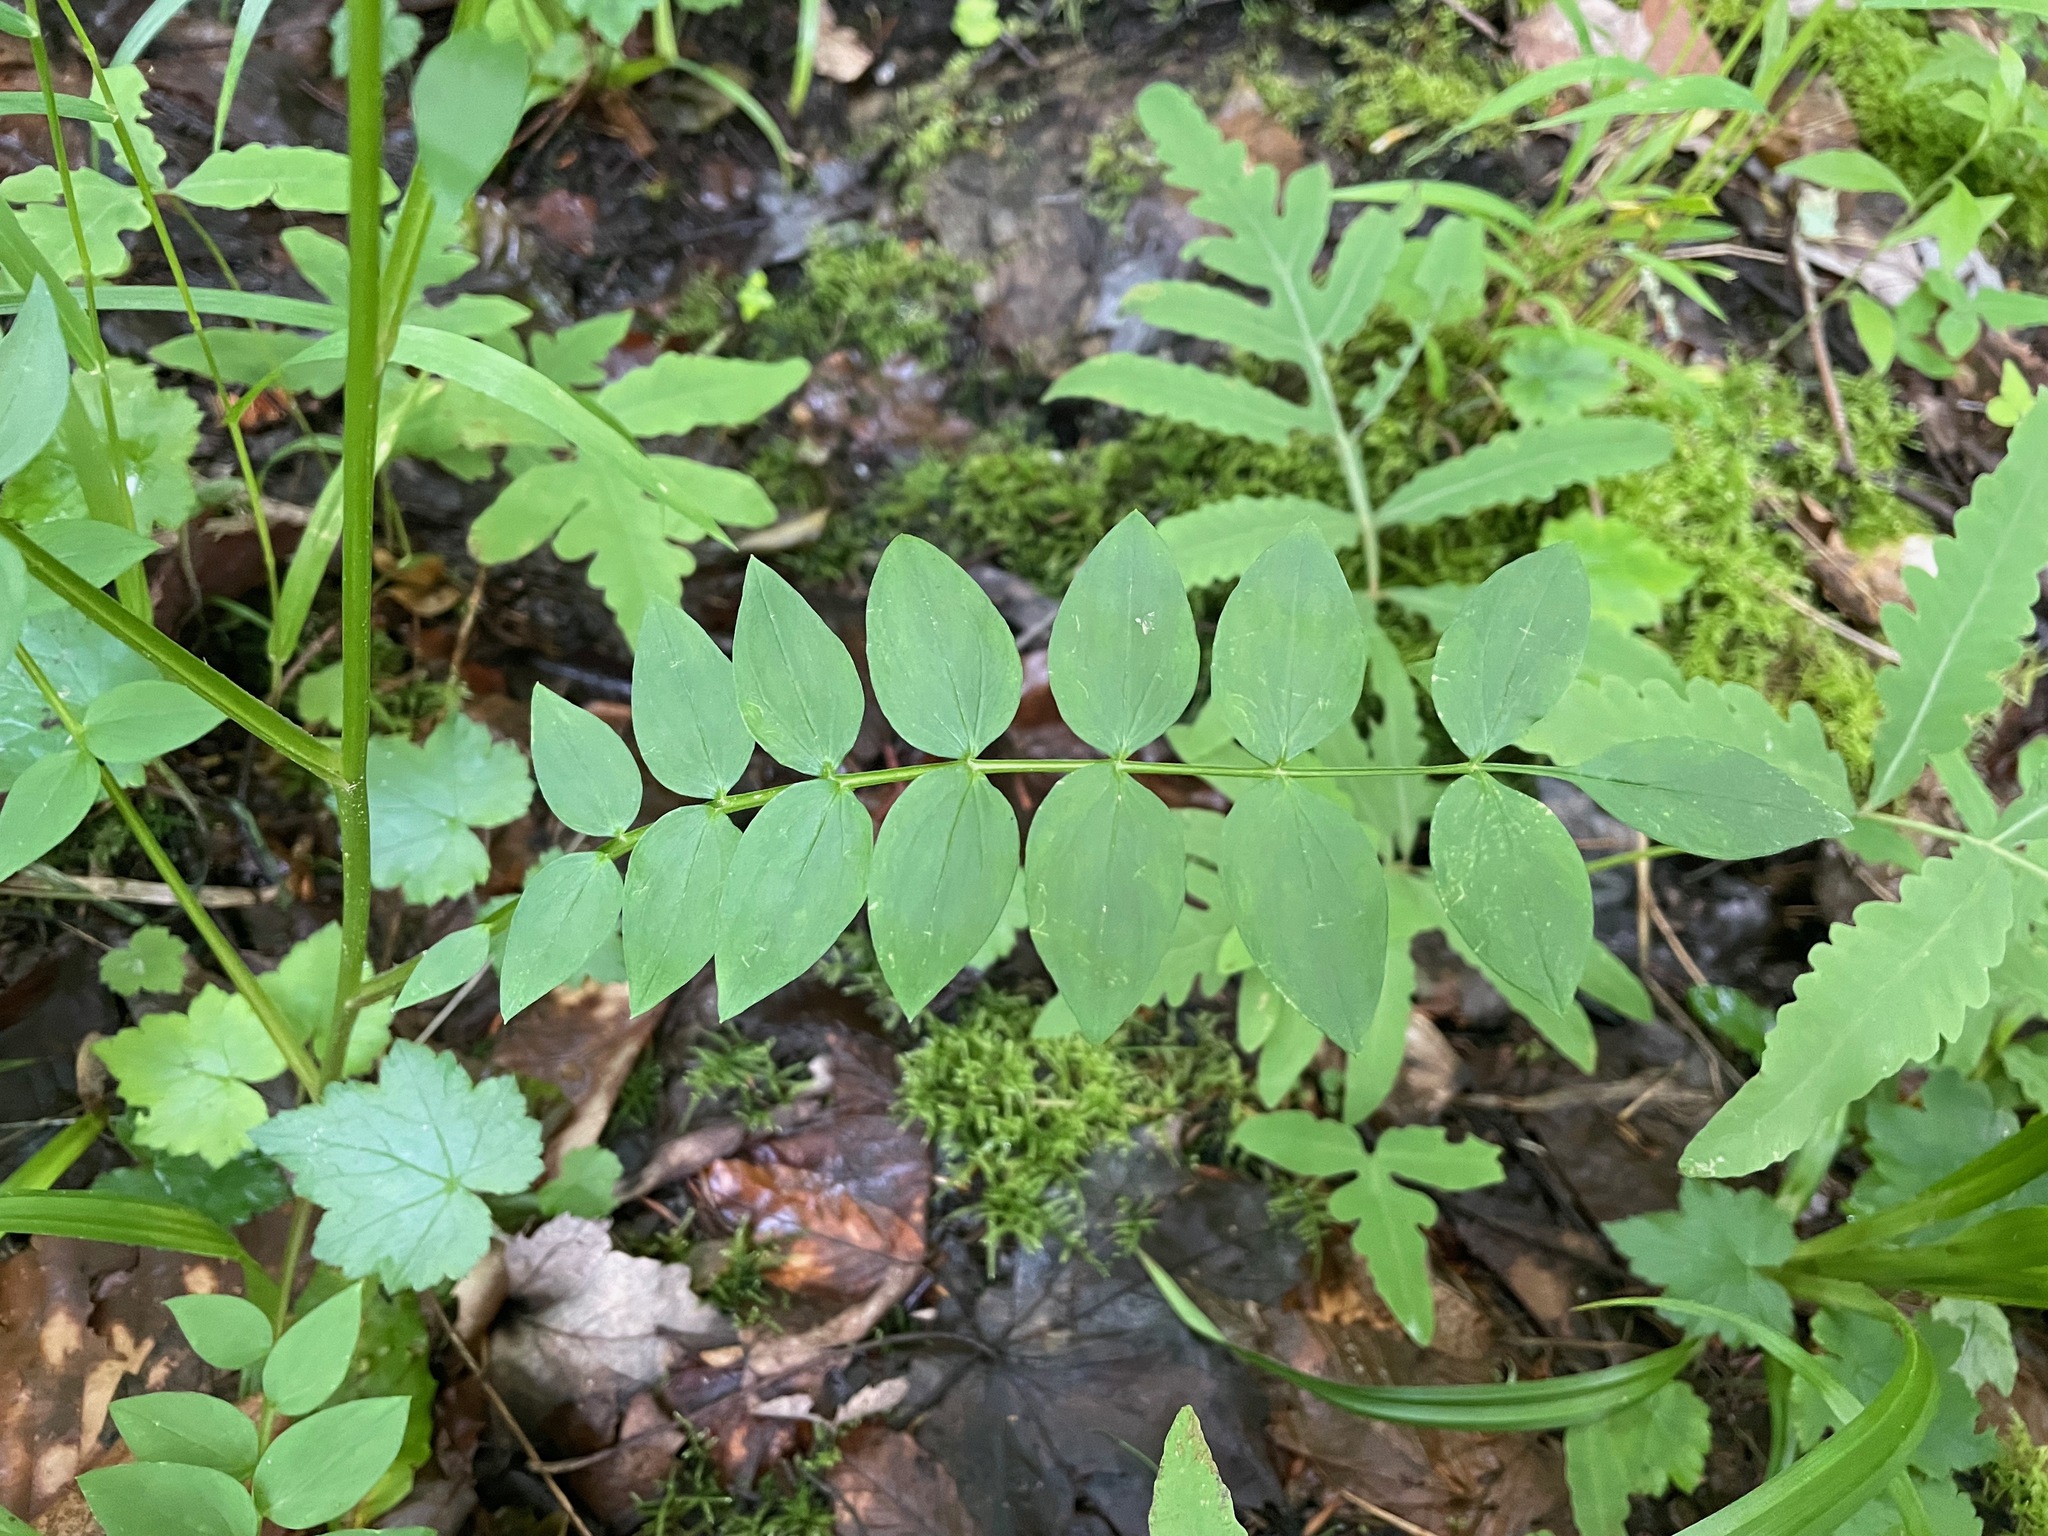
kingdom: Plantae
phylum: Tracheophyta
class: Magnoliopsida
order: Ericales
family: Polemoniaceae
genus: Polemonium
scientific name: Polemonium vanbruntiae
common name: Bog jacob's-ladder
